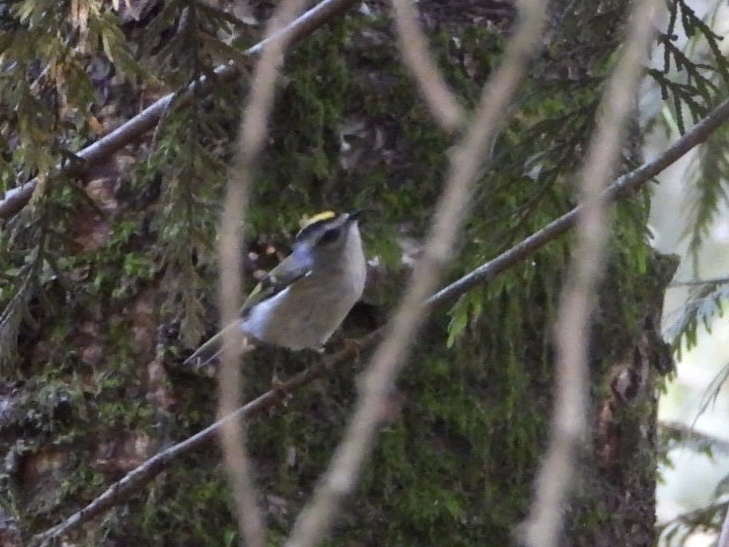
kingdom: Animalia
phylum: Chordata
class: Aves
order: Passeriformes
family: Regulidae
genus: Regulus
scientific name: Regulus satrapa
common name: Golden-crowned kinglet
